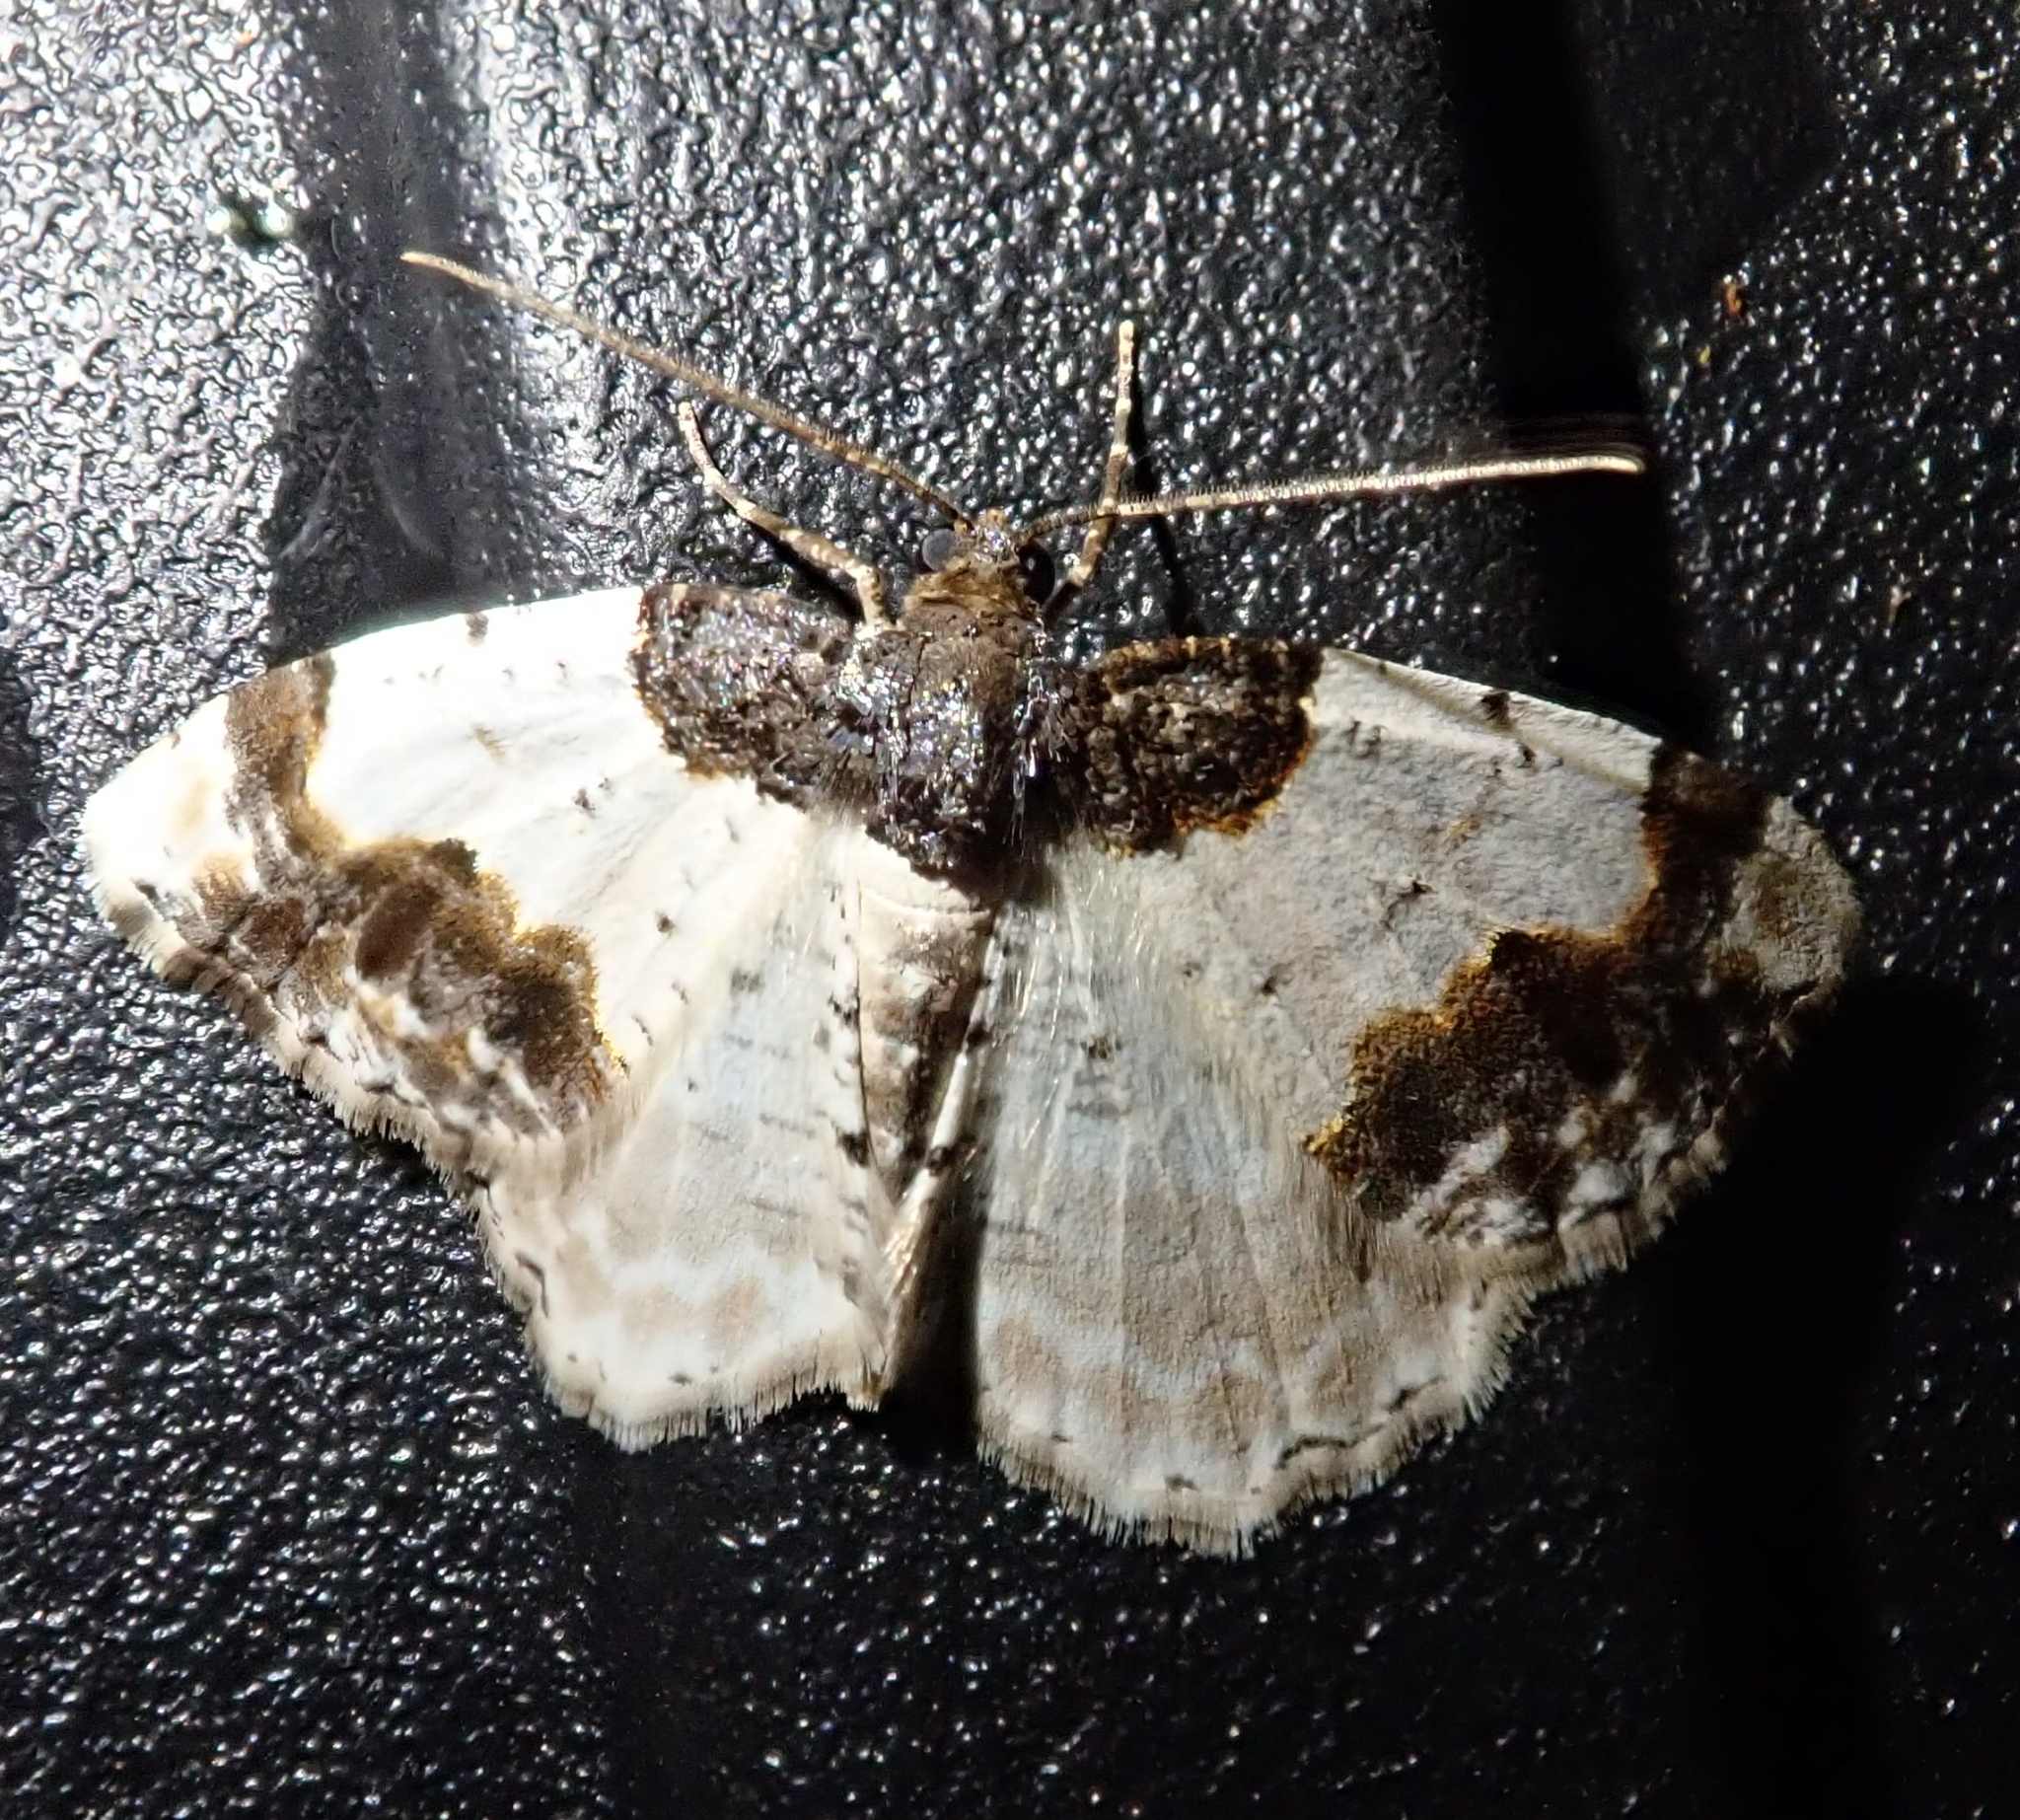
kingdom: Animalia
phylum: Arthropoda
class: Insecta
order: Lepidoptera
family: Geometridae
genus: Ligdia
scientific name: Ligdia adustata
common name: Scorched carpet
